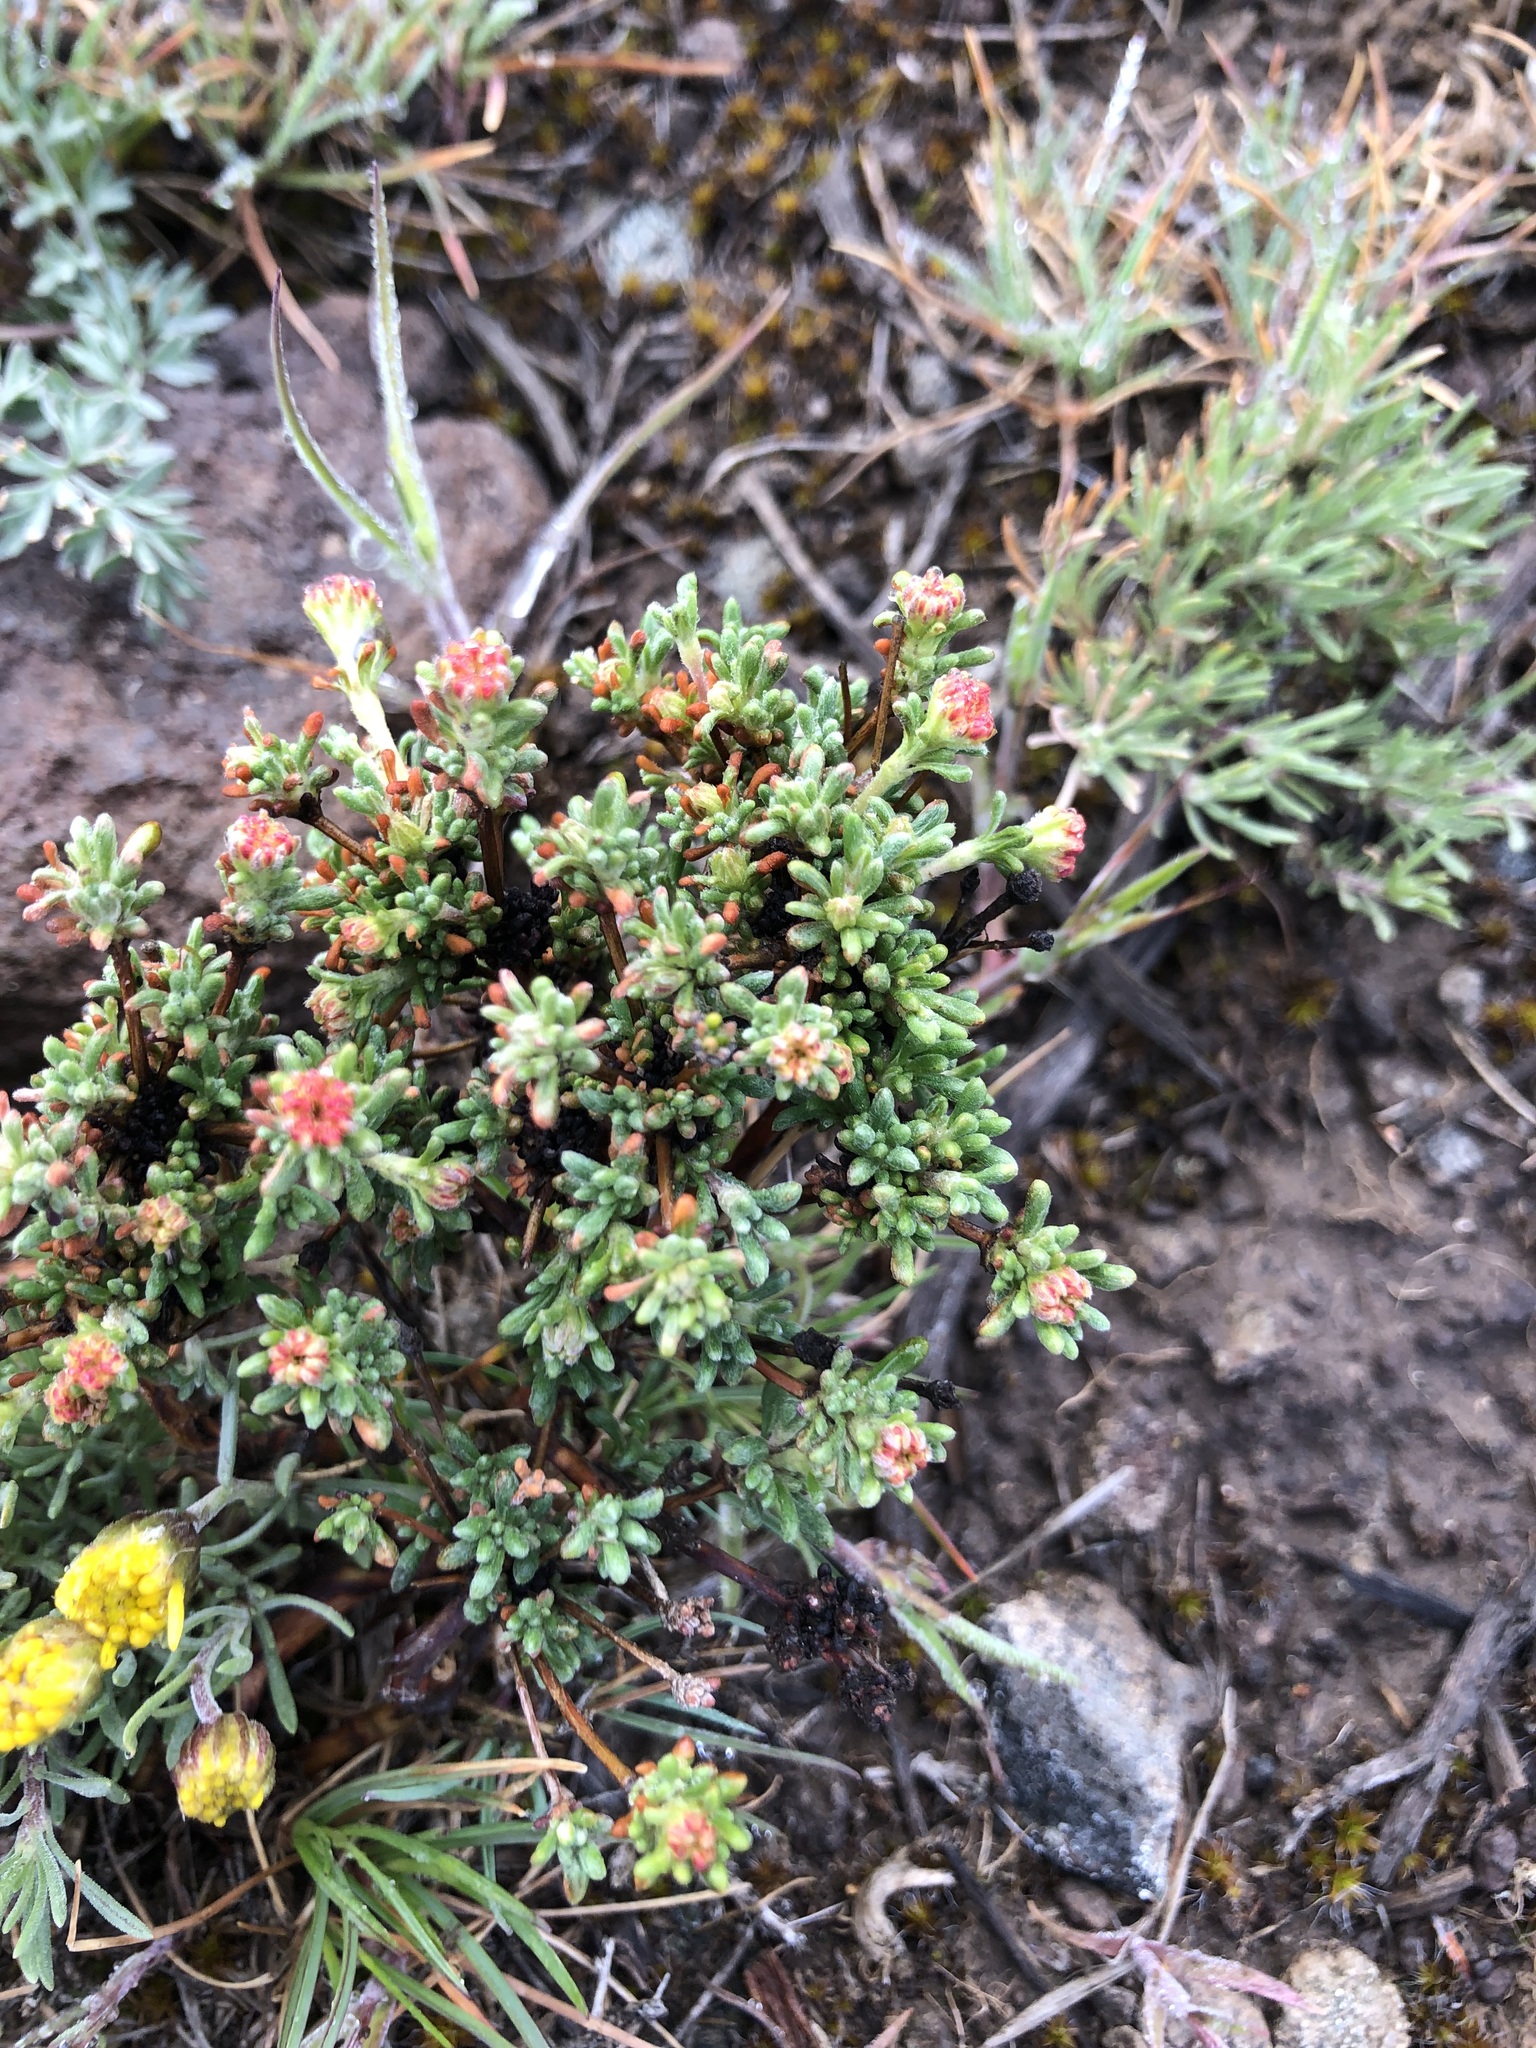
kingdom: Plantae
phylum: Tracheophyta
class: Magnoliopsida
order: Caryophyllales
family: Polygonaceae
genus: Eriogonum
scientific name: Eriogonum thymoides
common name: Thyme-leaf wild buckwheat
